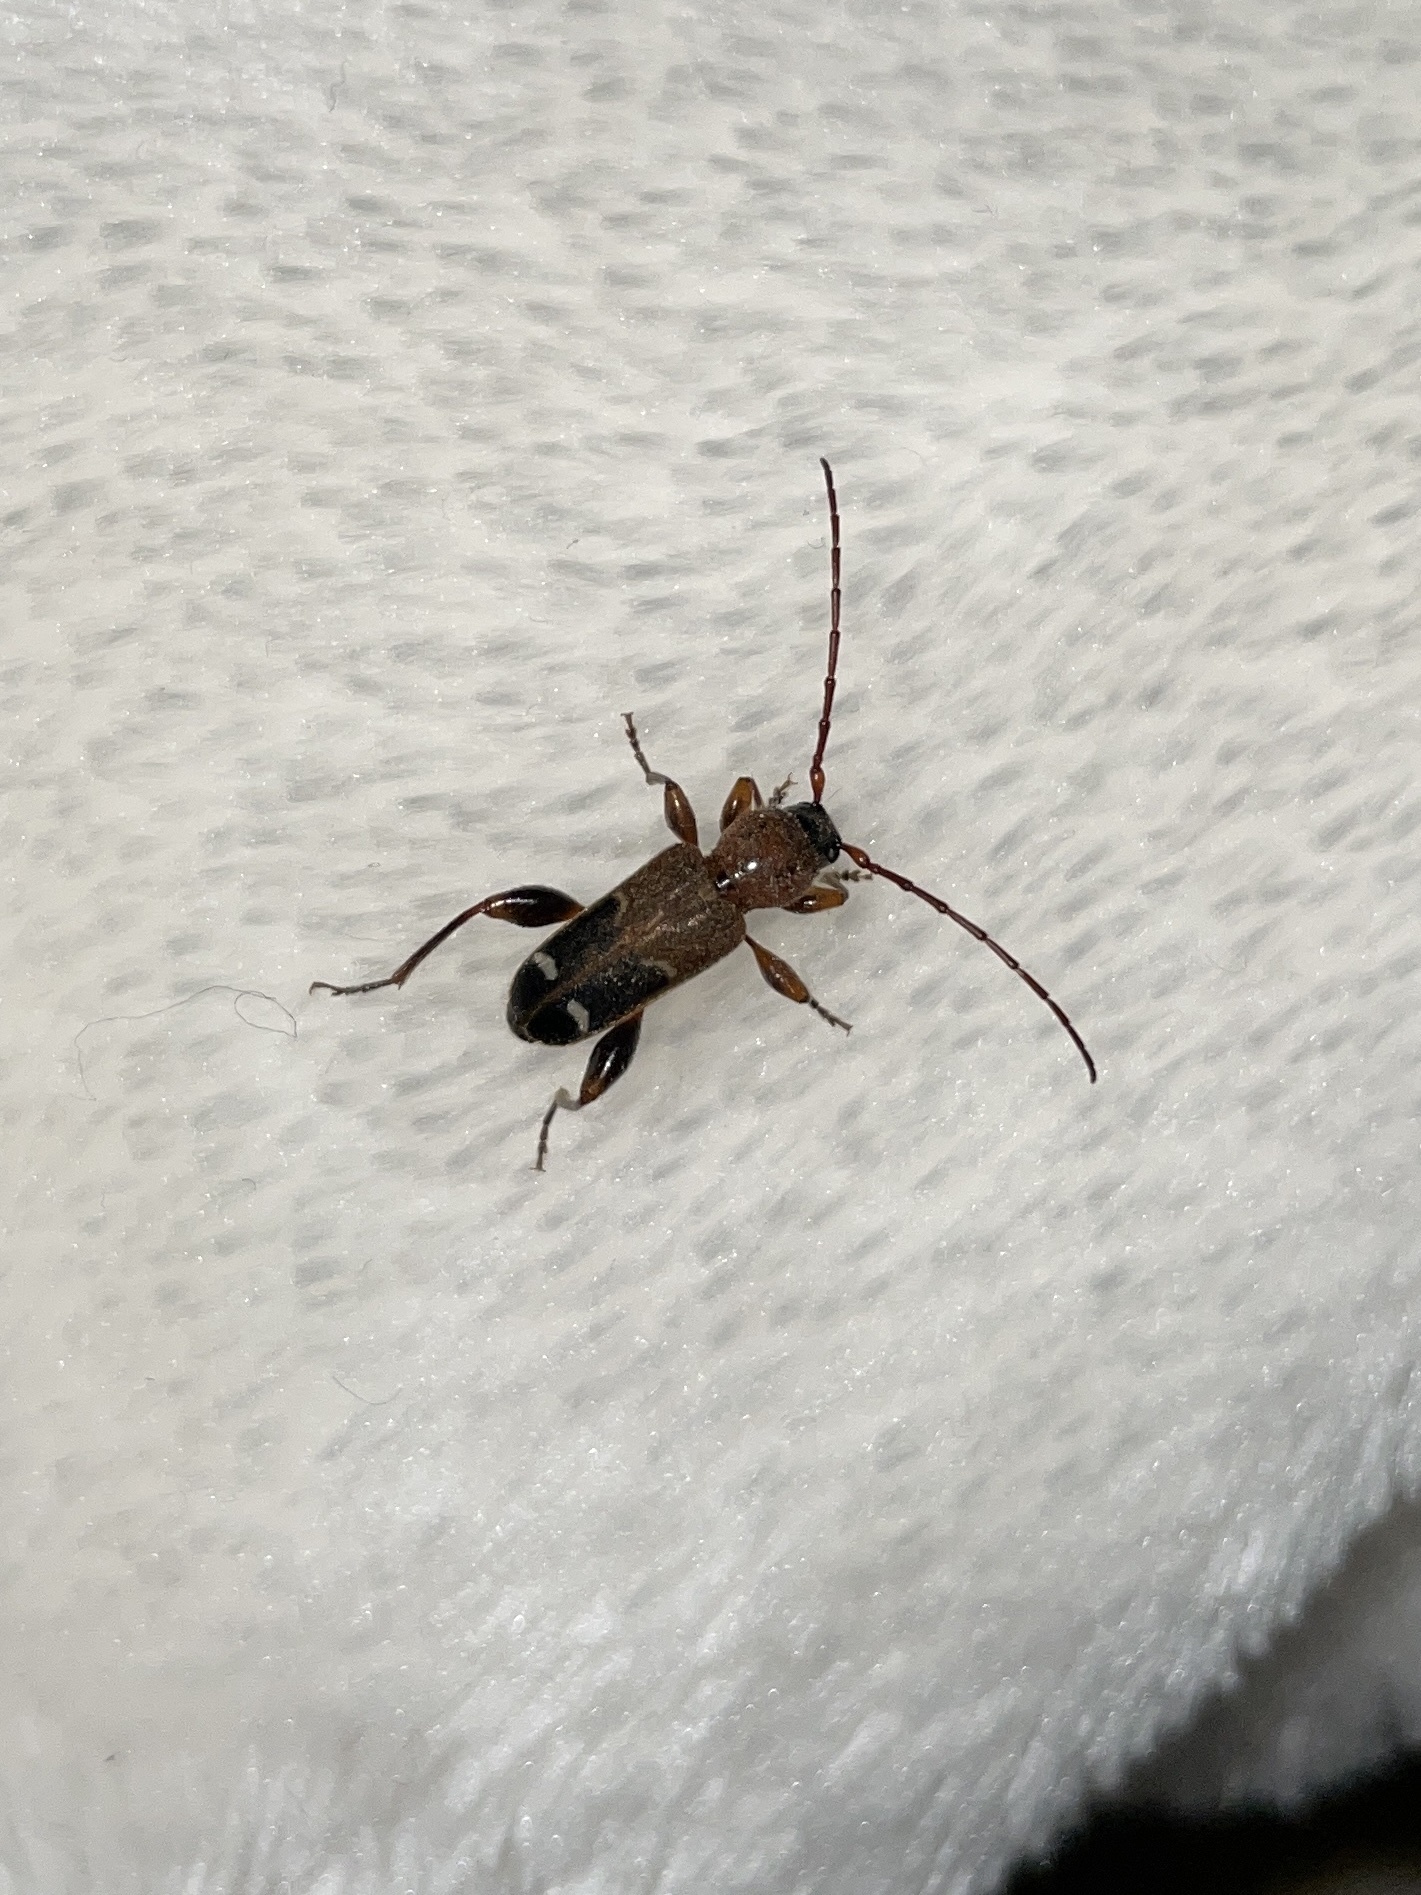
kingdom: Animalia
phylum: Arthropoda
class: Insecta
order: Coleoptera
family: Cerambycidae
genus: Phymatodes
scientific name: Phymatodes obliquus
